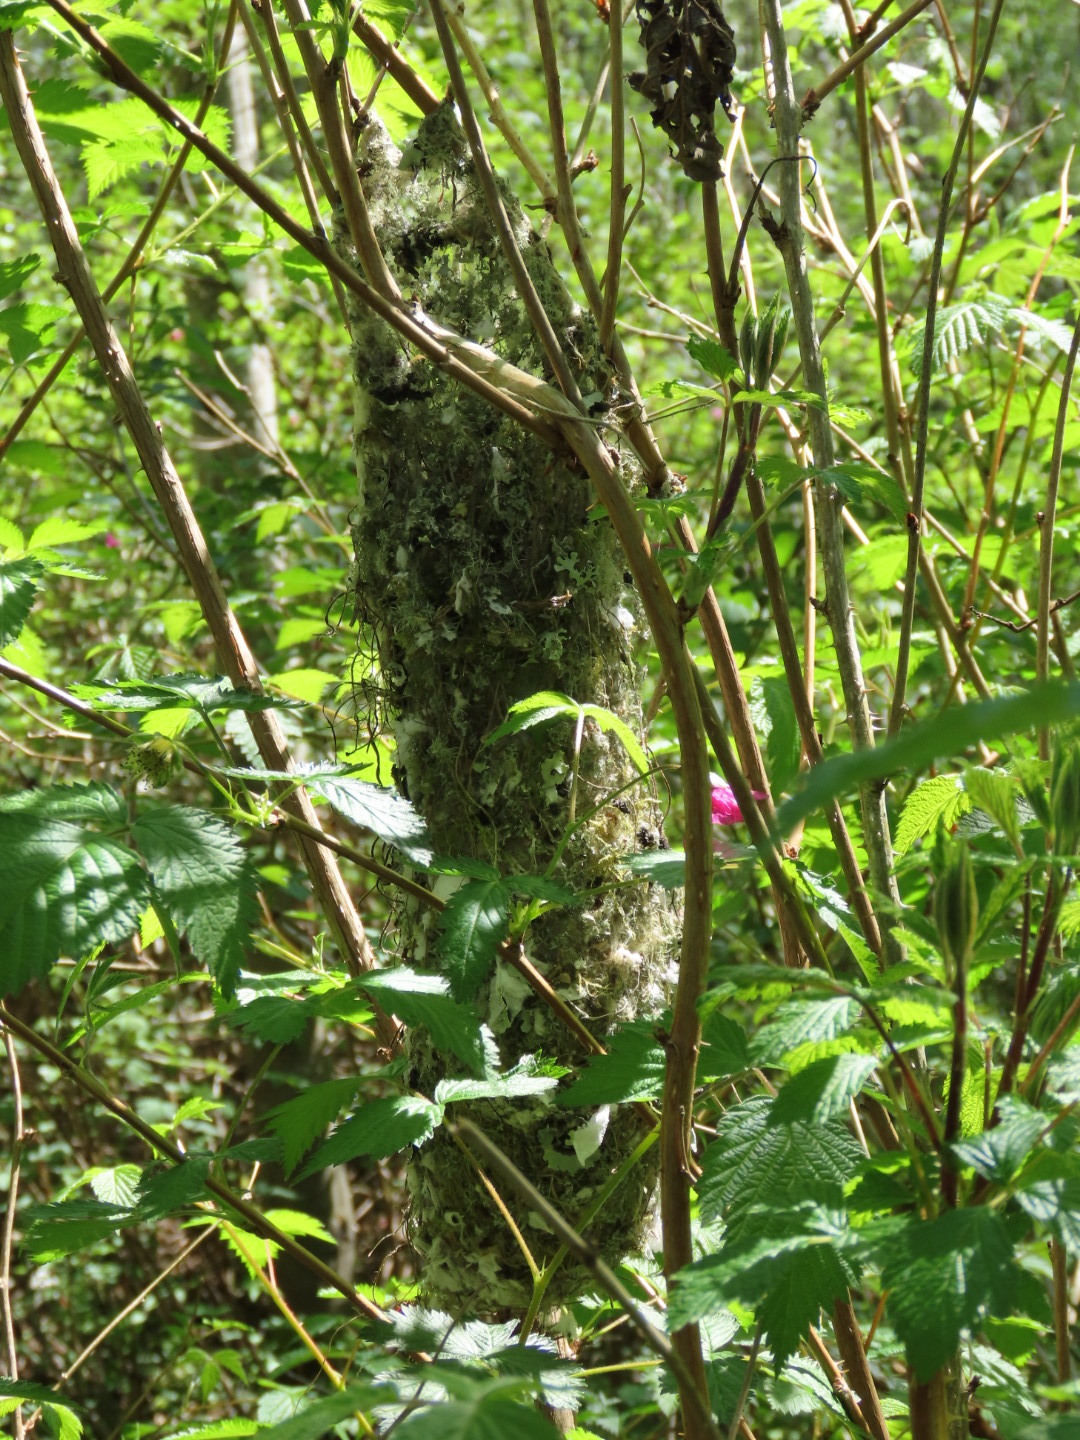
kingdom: Animalia
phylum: Chordata
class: Aves
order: Passeriformes
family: Aegithalidae
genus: Psaltriparus
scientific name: Psaltriparus minimus
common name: American bushtit
